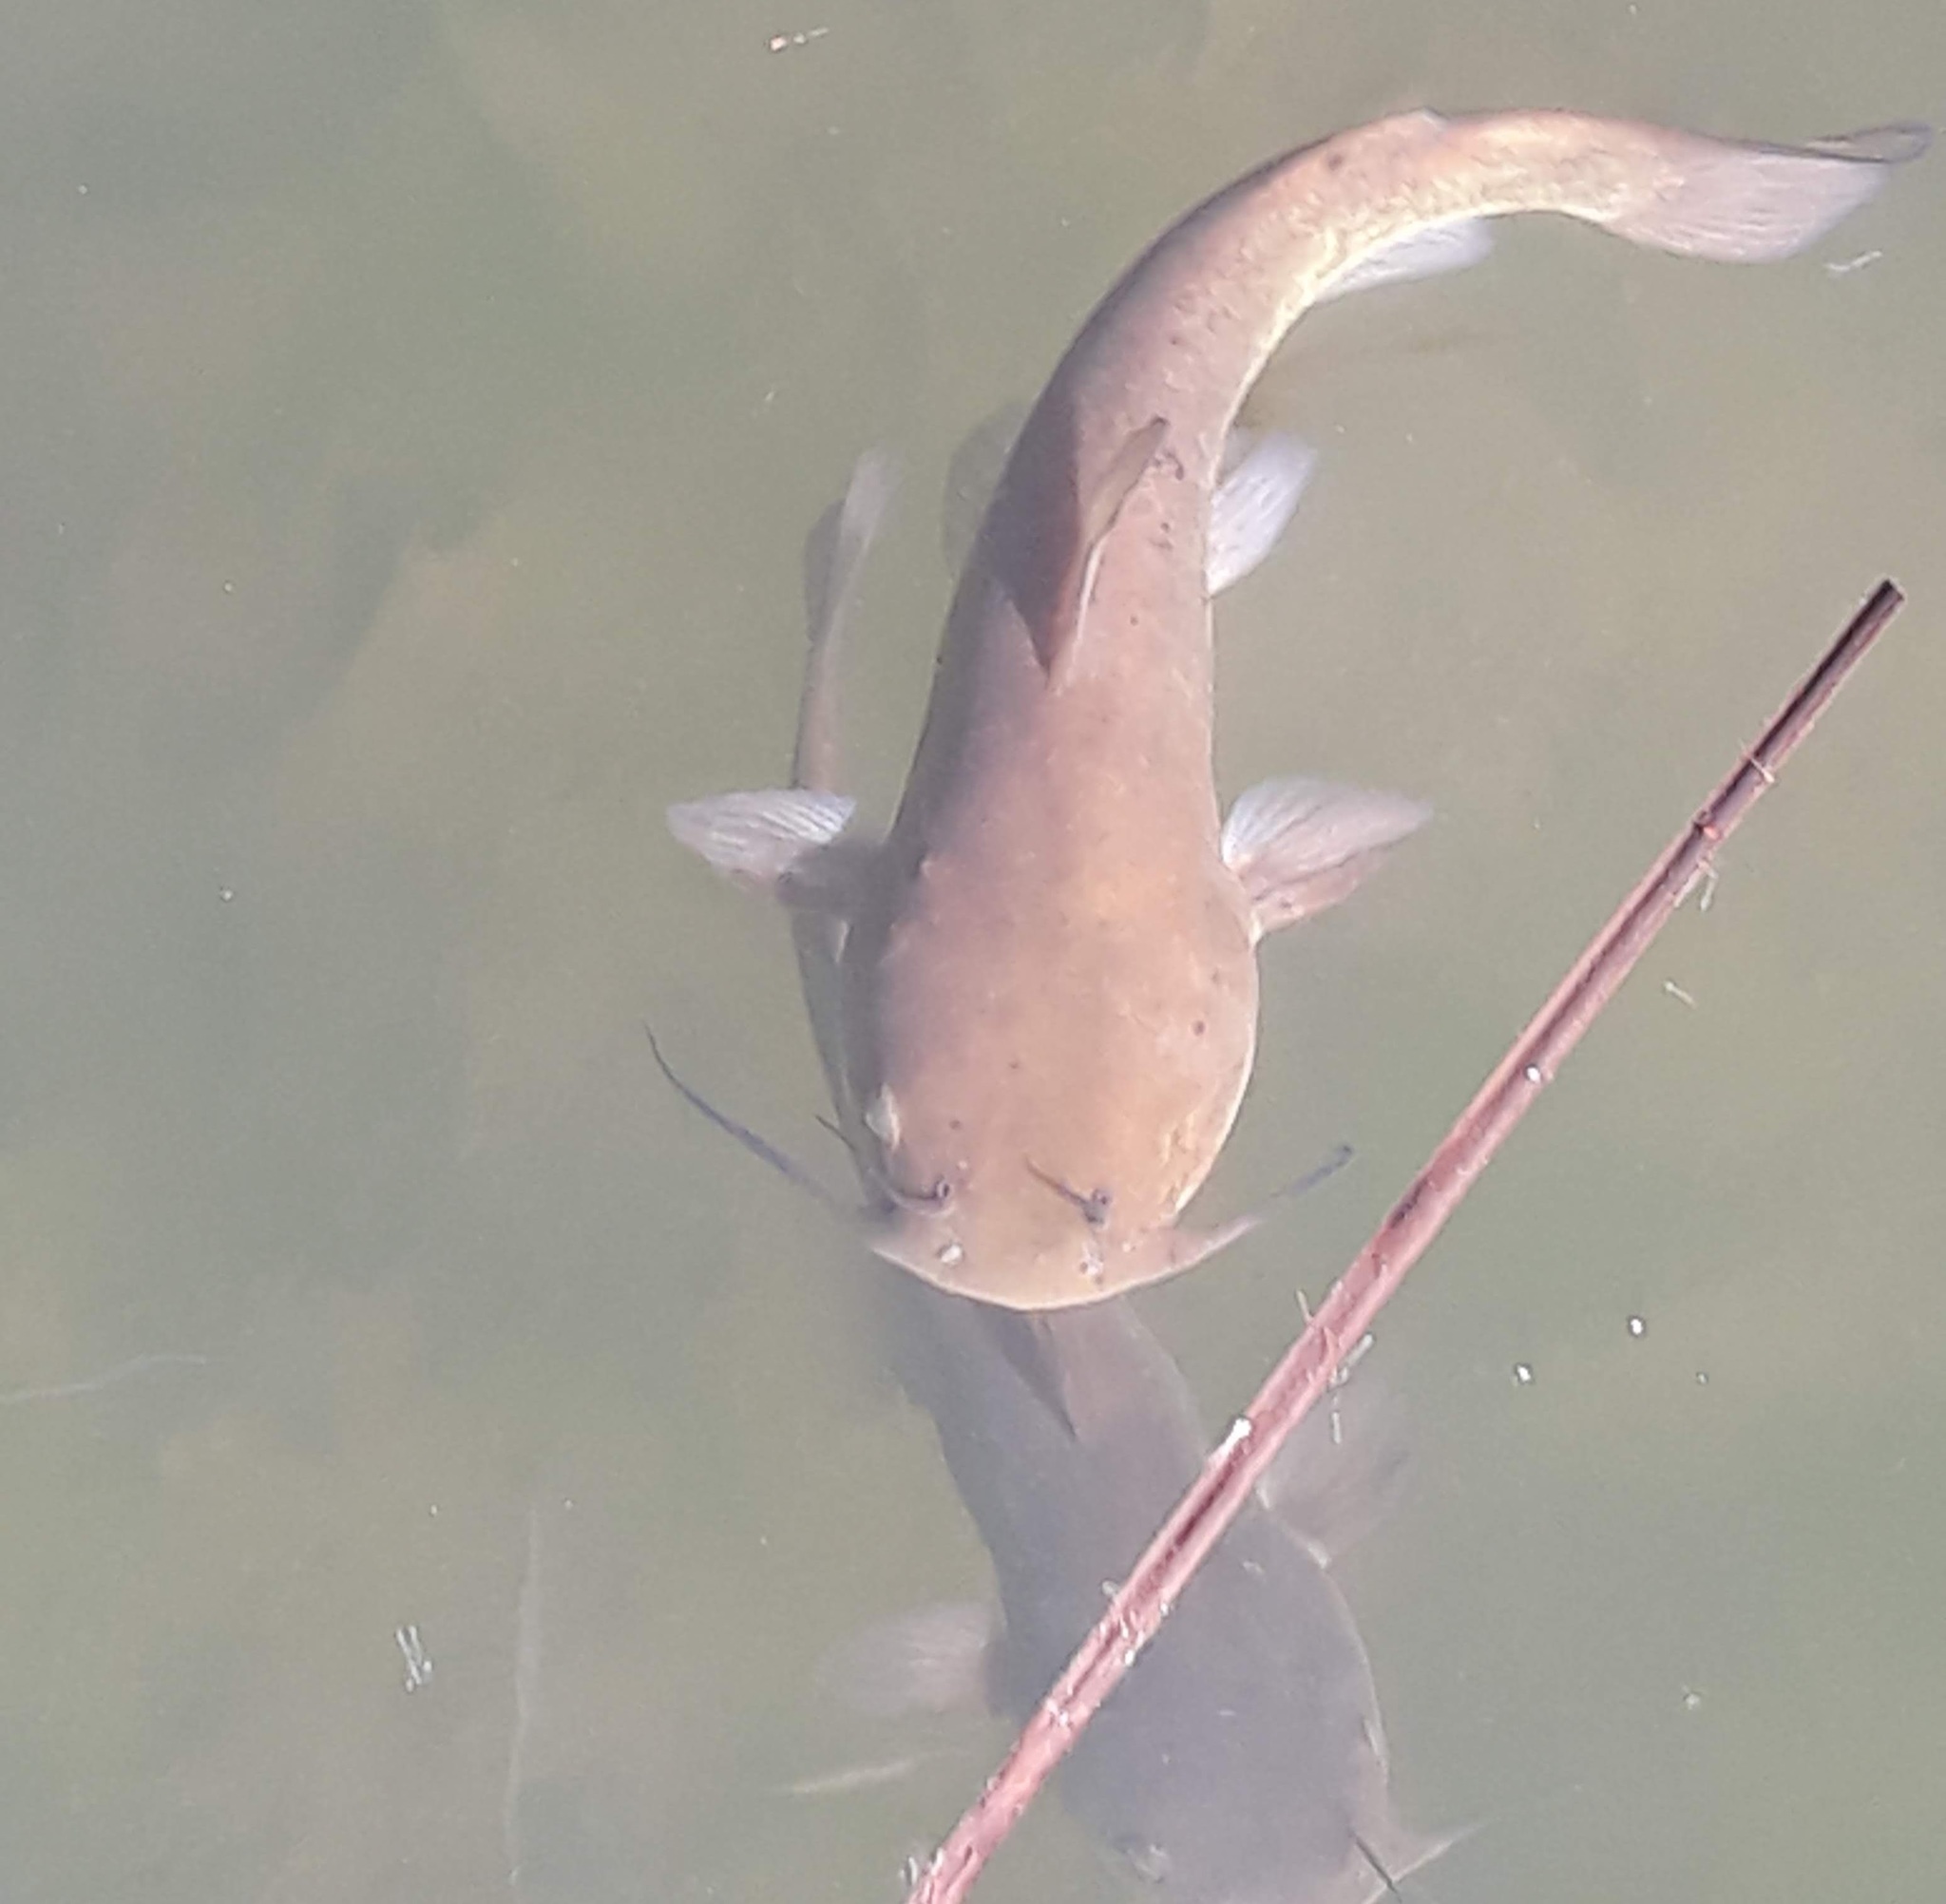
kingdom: Animalia
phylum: Chordata
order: Siluriformes
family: Ictaluridae
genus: Ameiurus
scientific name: Ameiurus
